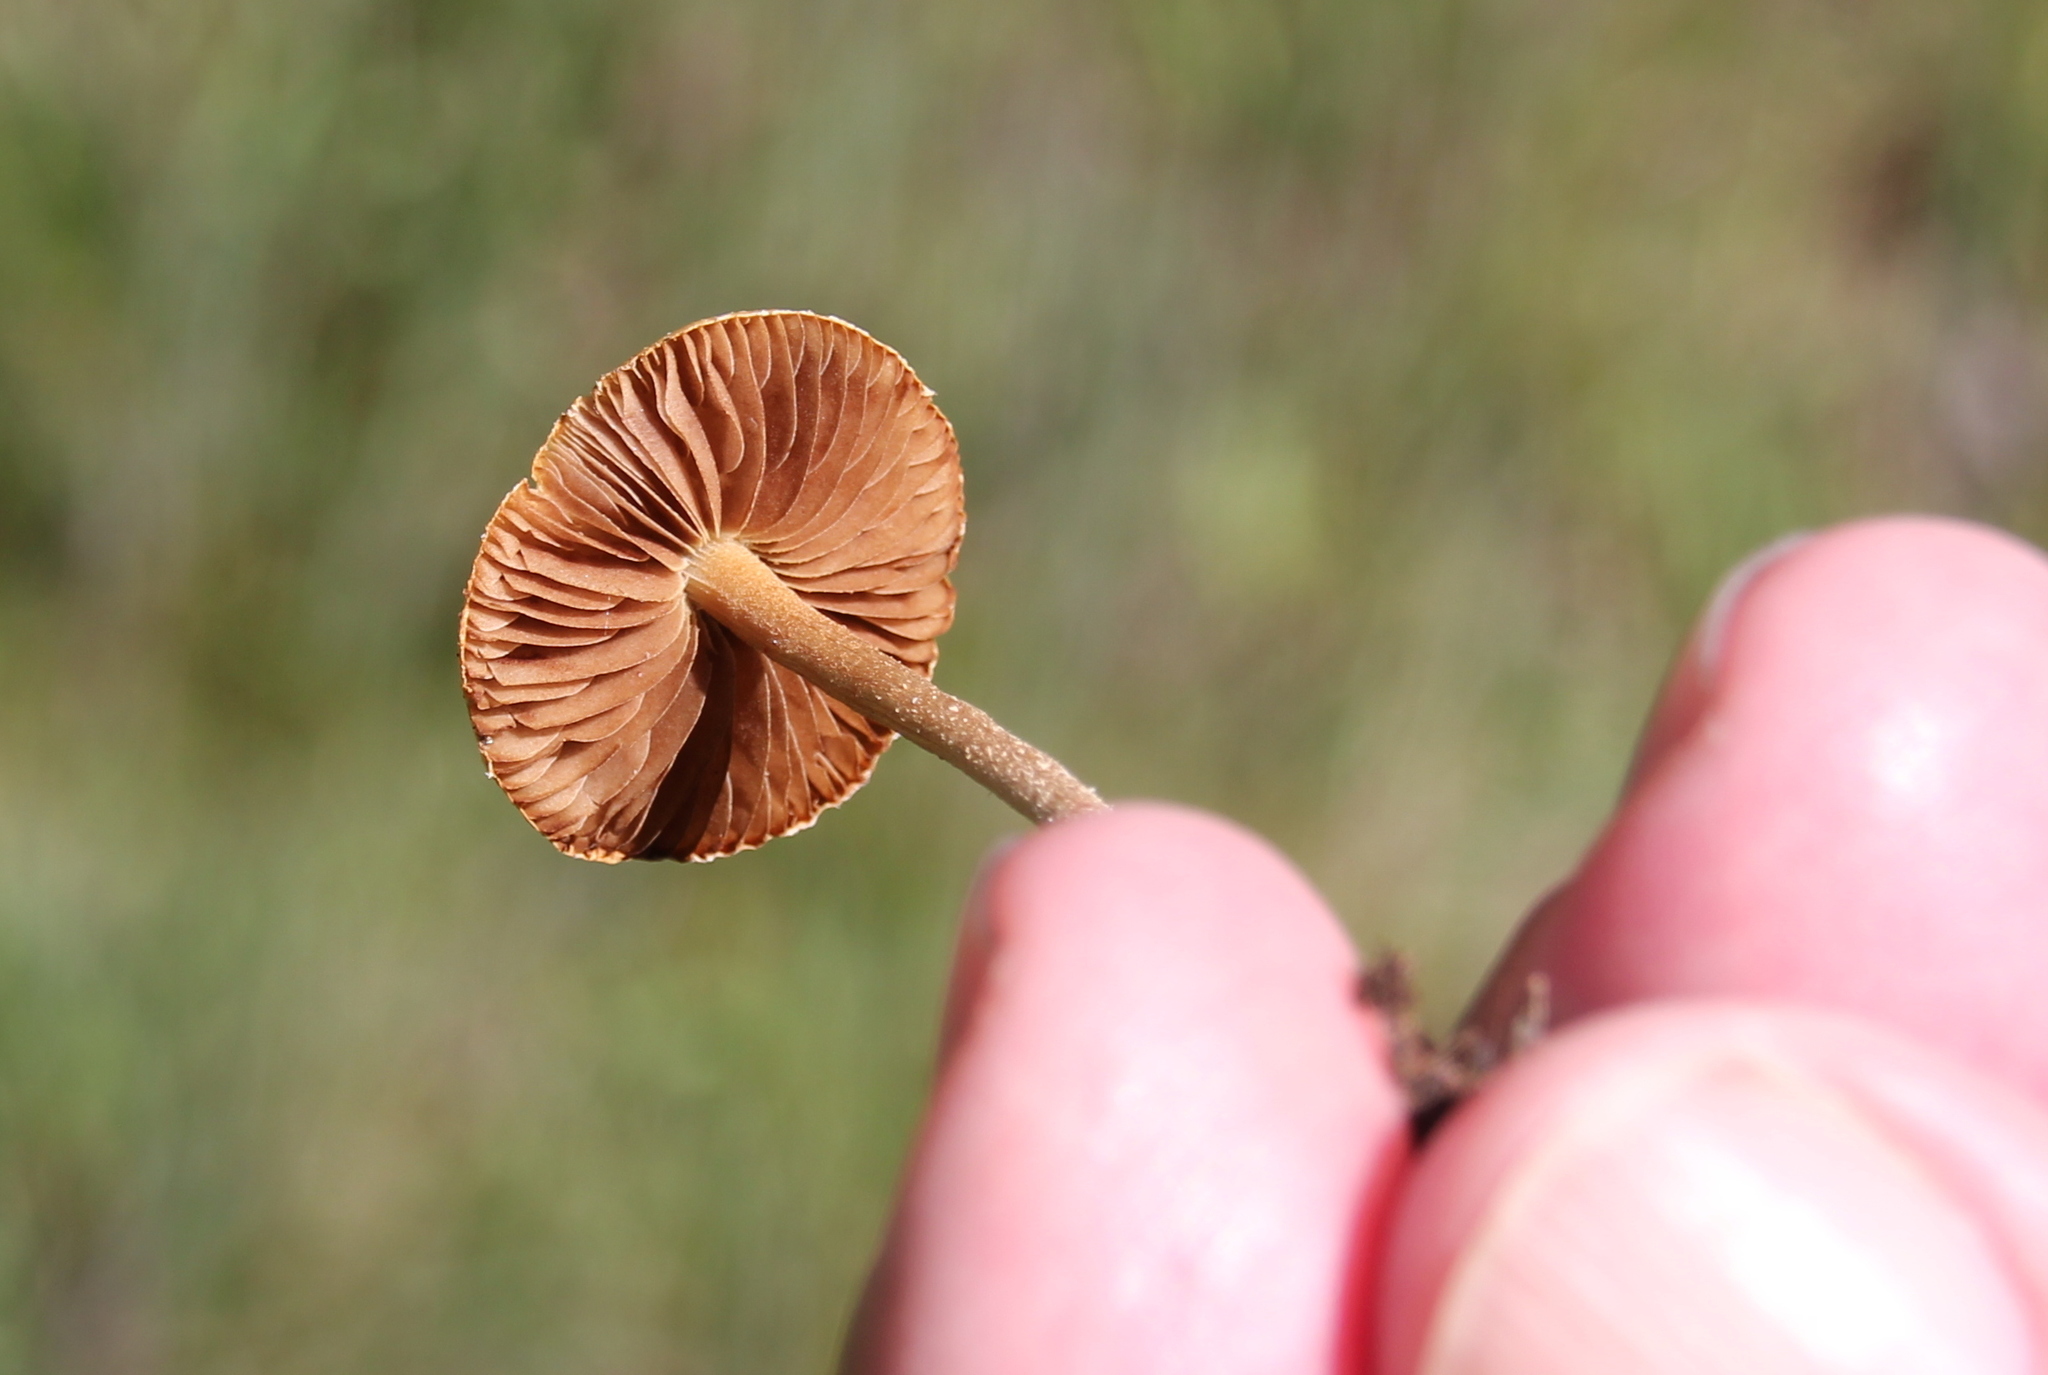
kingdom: Fungi
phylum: Basidiomycota
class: Agaricomycetes
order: Agaricales
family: Strophariaceae
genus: Agrocybe
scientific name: Agrocybe pediades
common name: Common fieldcap
